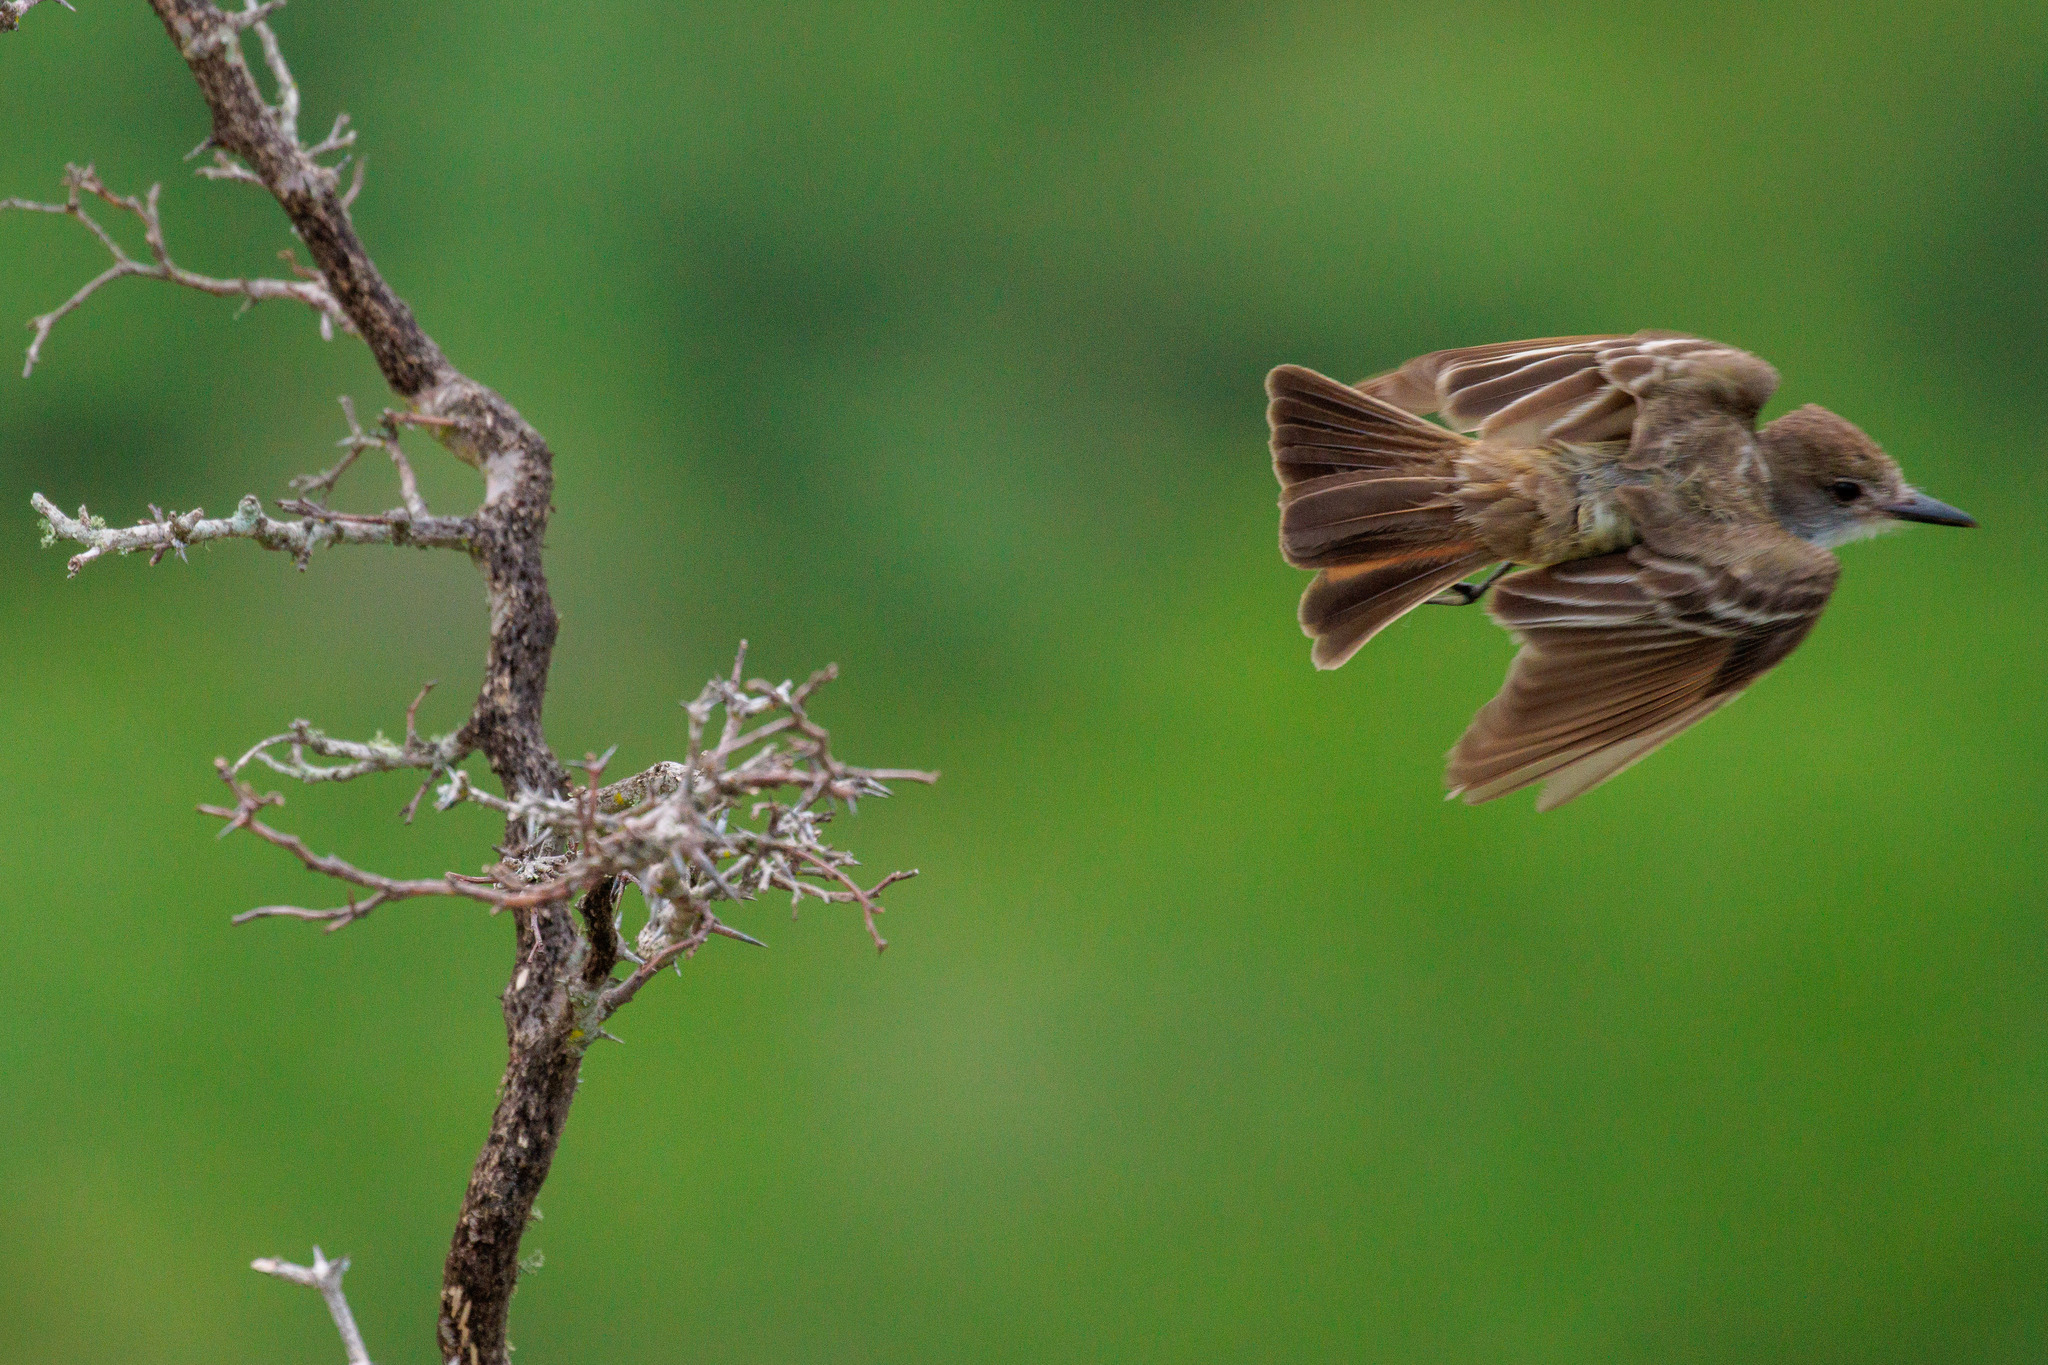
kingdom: Animalia
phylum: Chordata
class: Aves
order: Passeriformes
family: Tyrannidae
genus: Myiarchus
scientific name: Myiarchus tyrannulus
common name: Brown-crested flycatcher
